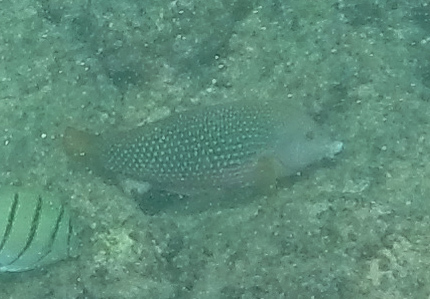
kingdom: Animalia
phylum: Chordata
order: Perciformes
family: Labridae
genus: Anampses
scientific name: Anampses cuvier
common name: Pearl wrasse
